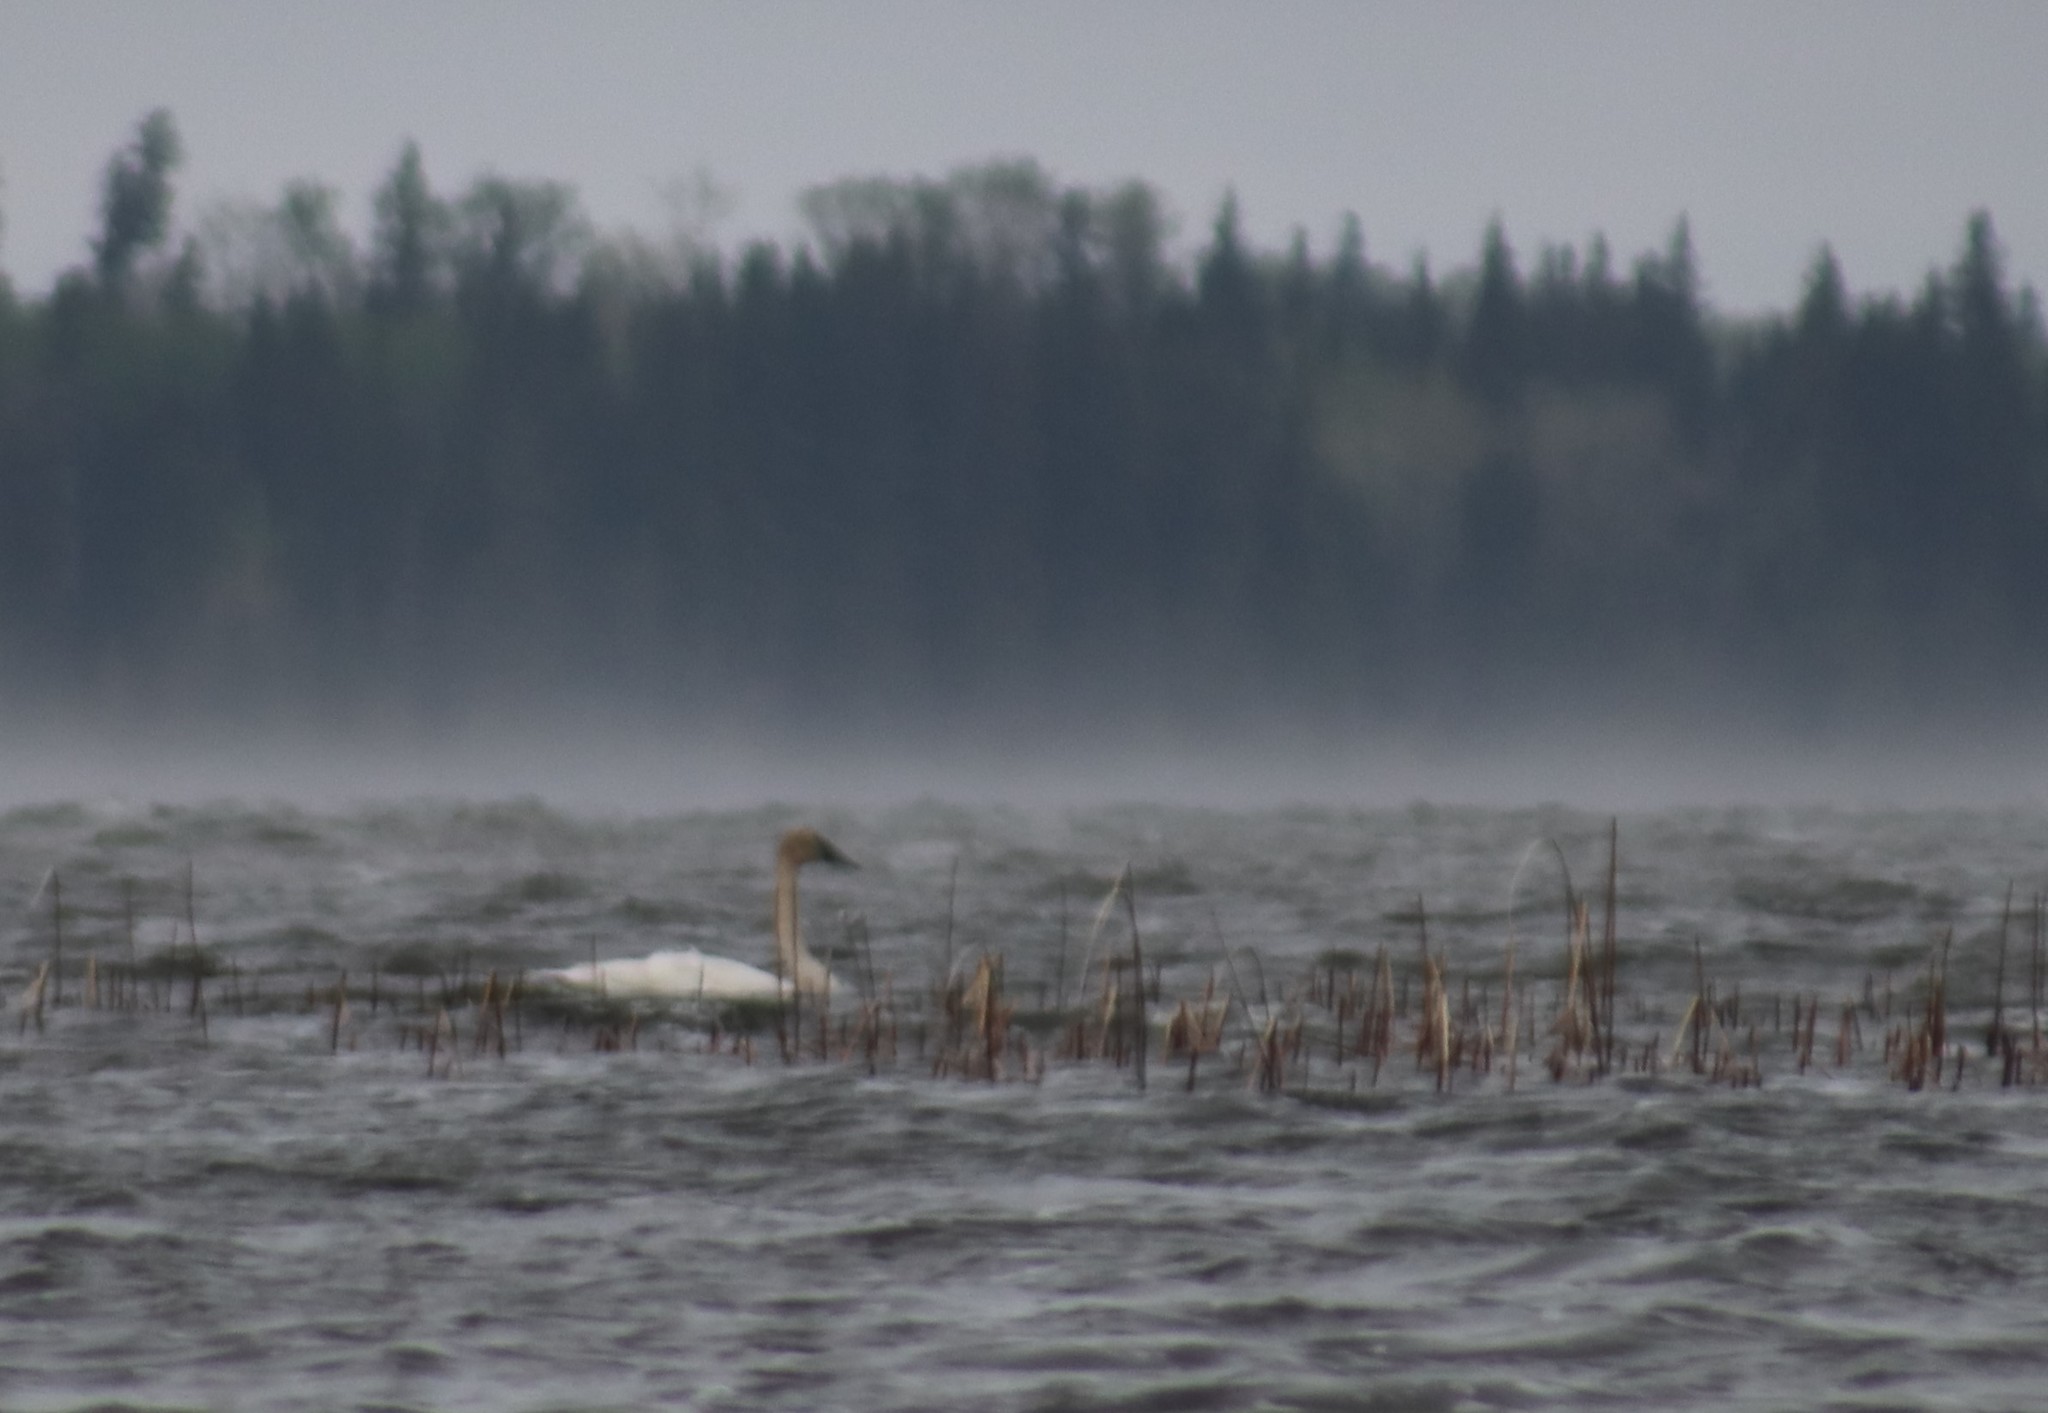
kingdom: Animalia
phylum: Chordata
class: Aves
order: Anseriformes
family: Anatidae
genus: Cygnus
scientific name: Cygnus buccinator
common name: Trumpeter swan
